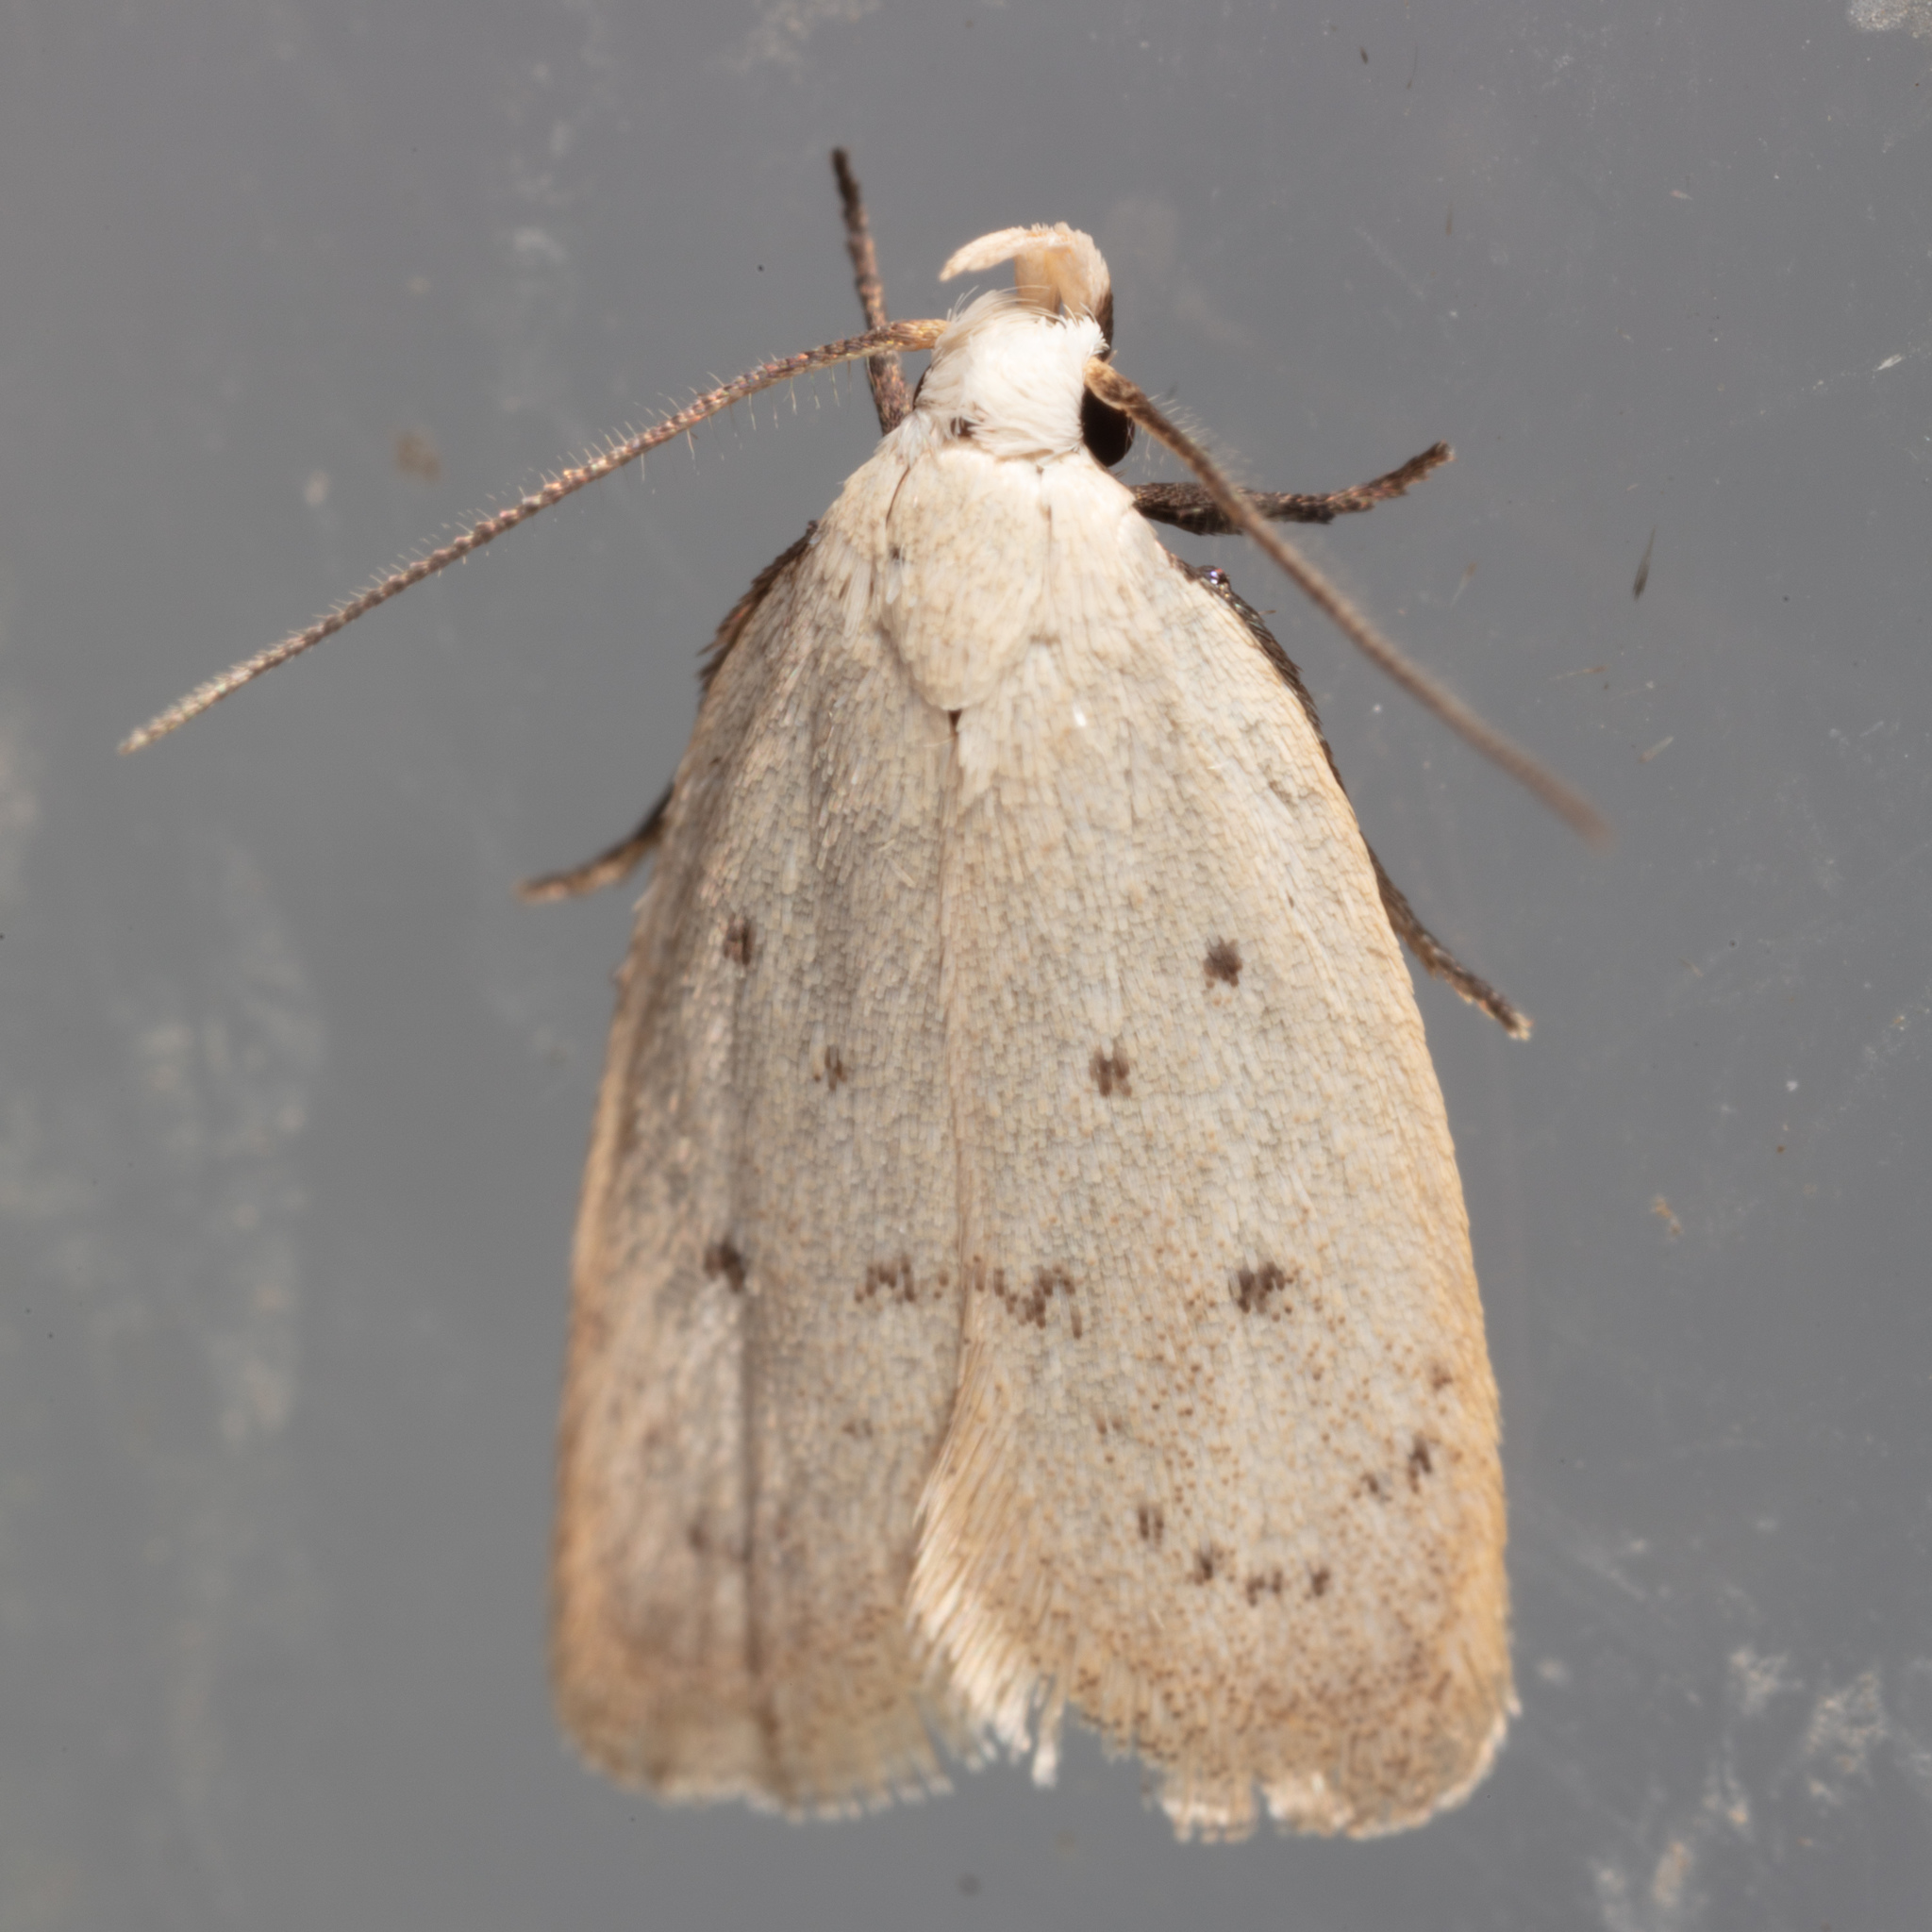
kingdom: Animalia
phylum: Arthropoda
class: Insecta
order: Lepidoptera
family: Oecophoridae
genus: Inga
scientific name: Inga cretacea
